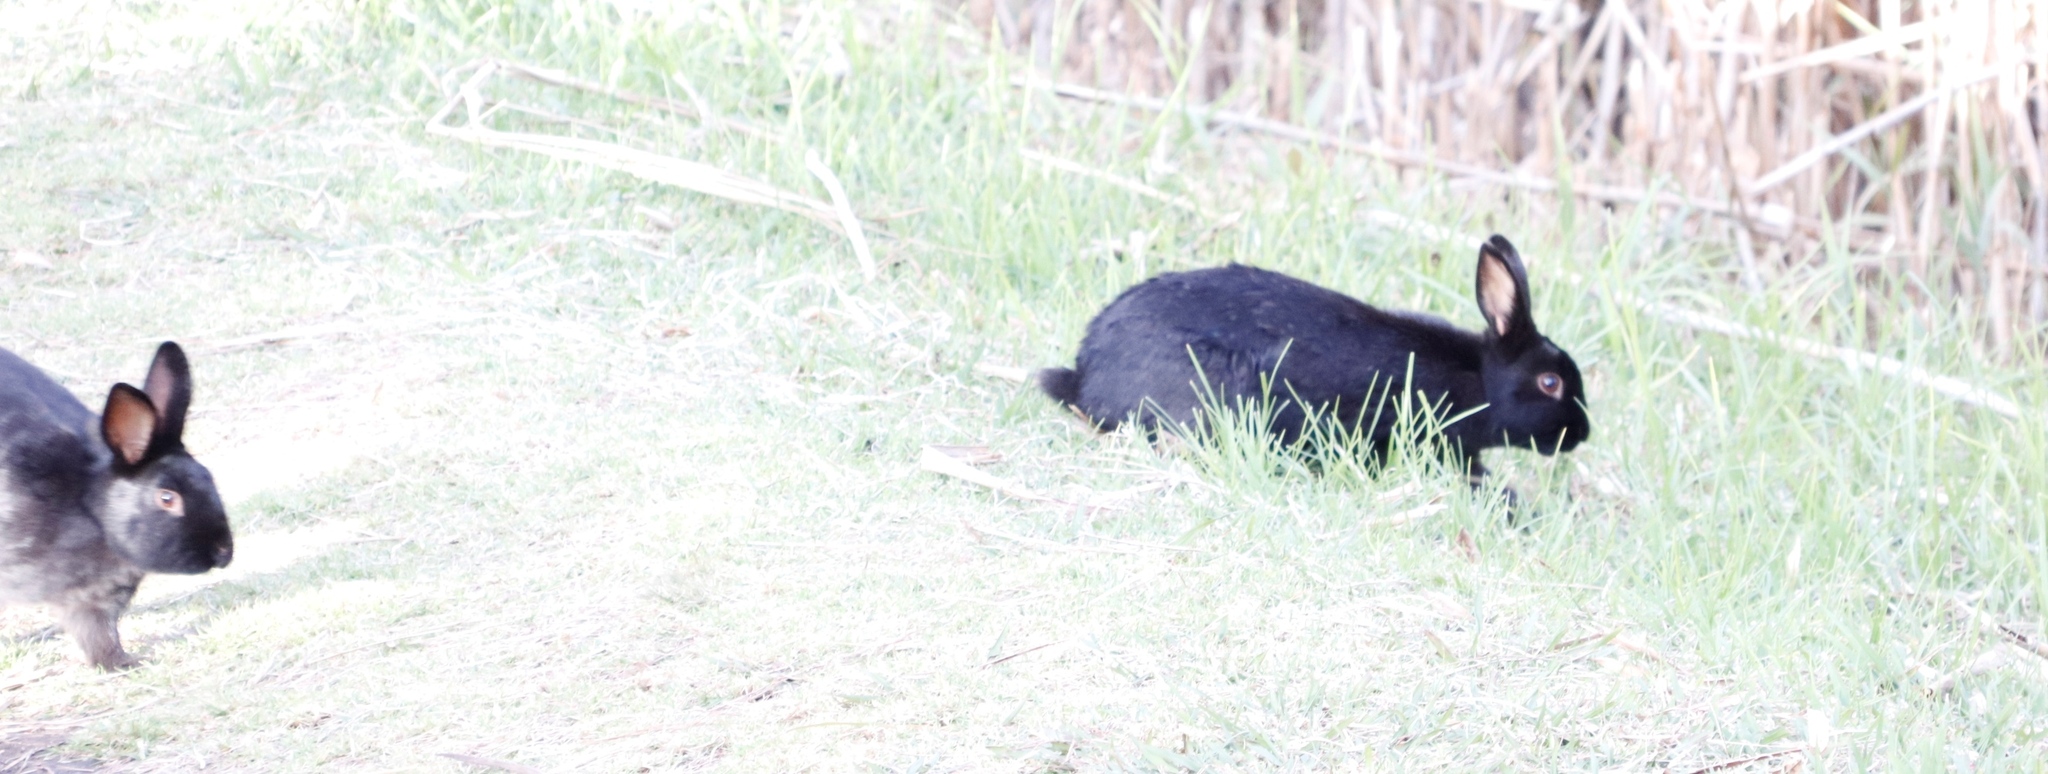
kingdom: Animalia
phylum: Chordata
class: Mammalia
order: Lagomorpha
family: Leporidae
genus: Oryctolagus
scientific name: Oryctolagus cuniculus
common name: European rabbit
